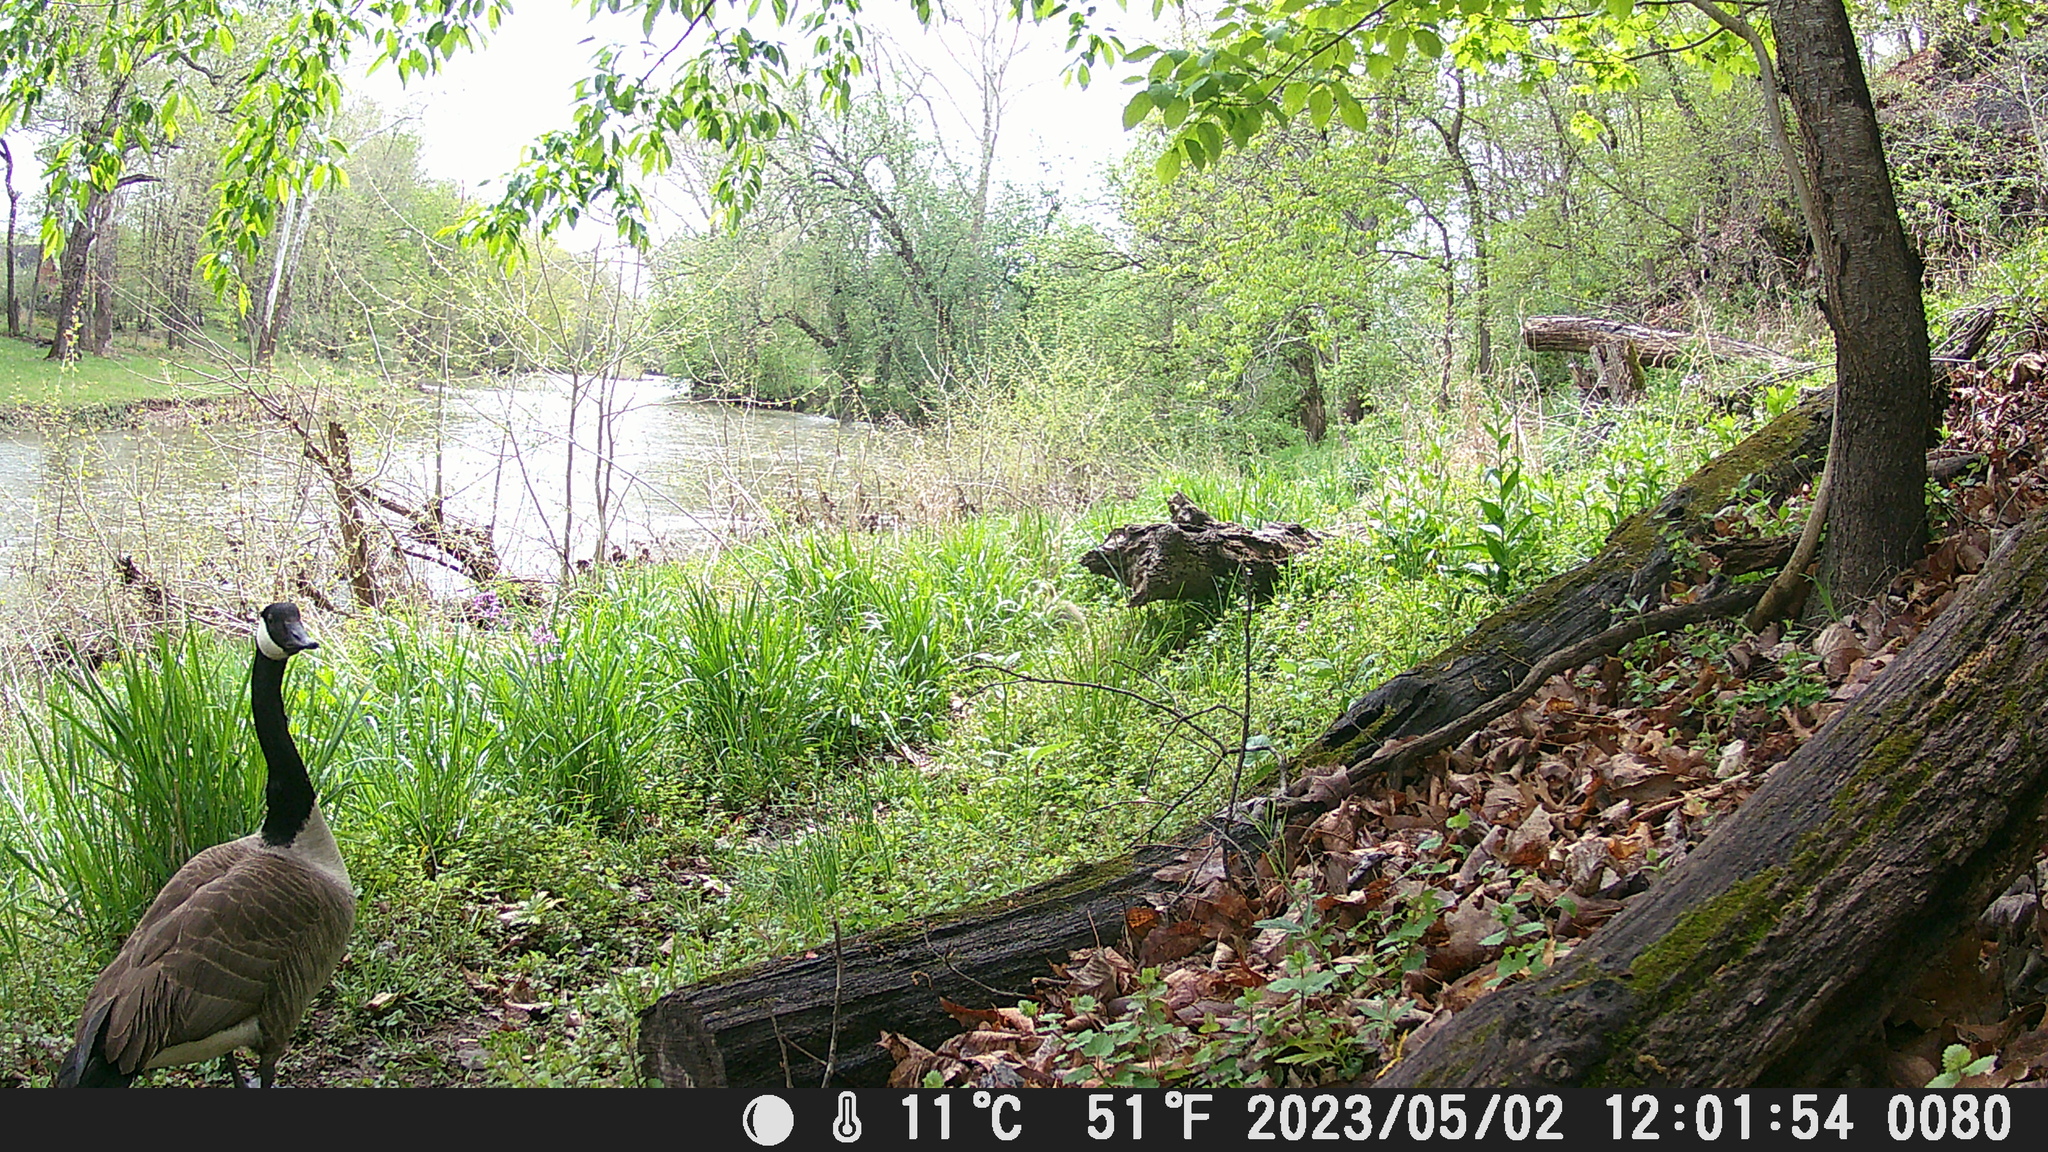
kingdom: Animalia
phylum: Chordata
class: Aves
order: Anseriformes
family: Anatidae
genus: Branta
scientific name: Branta canadensis
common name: Canada goose
